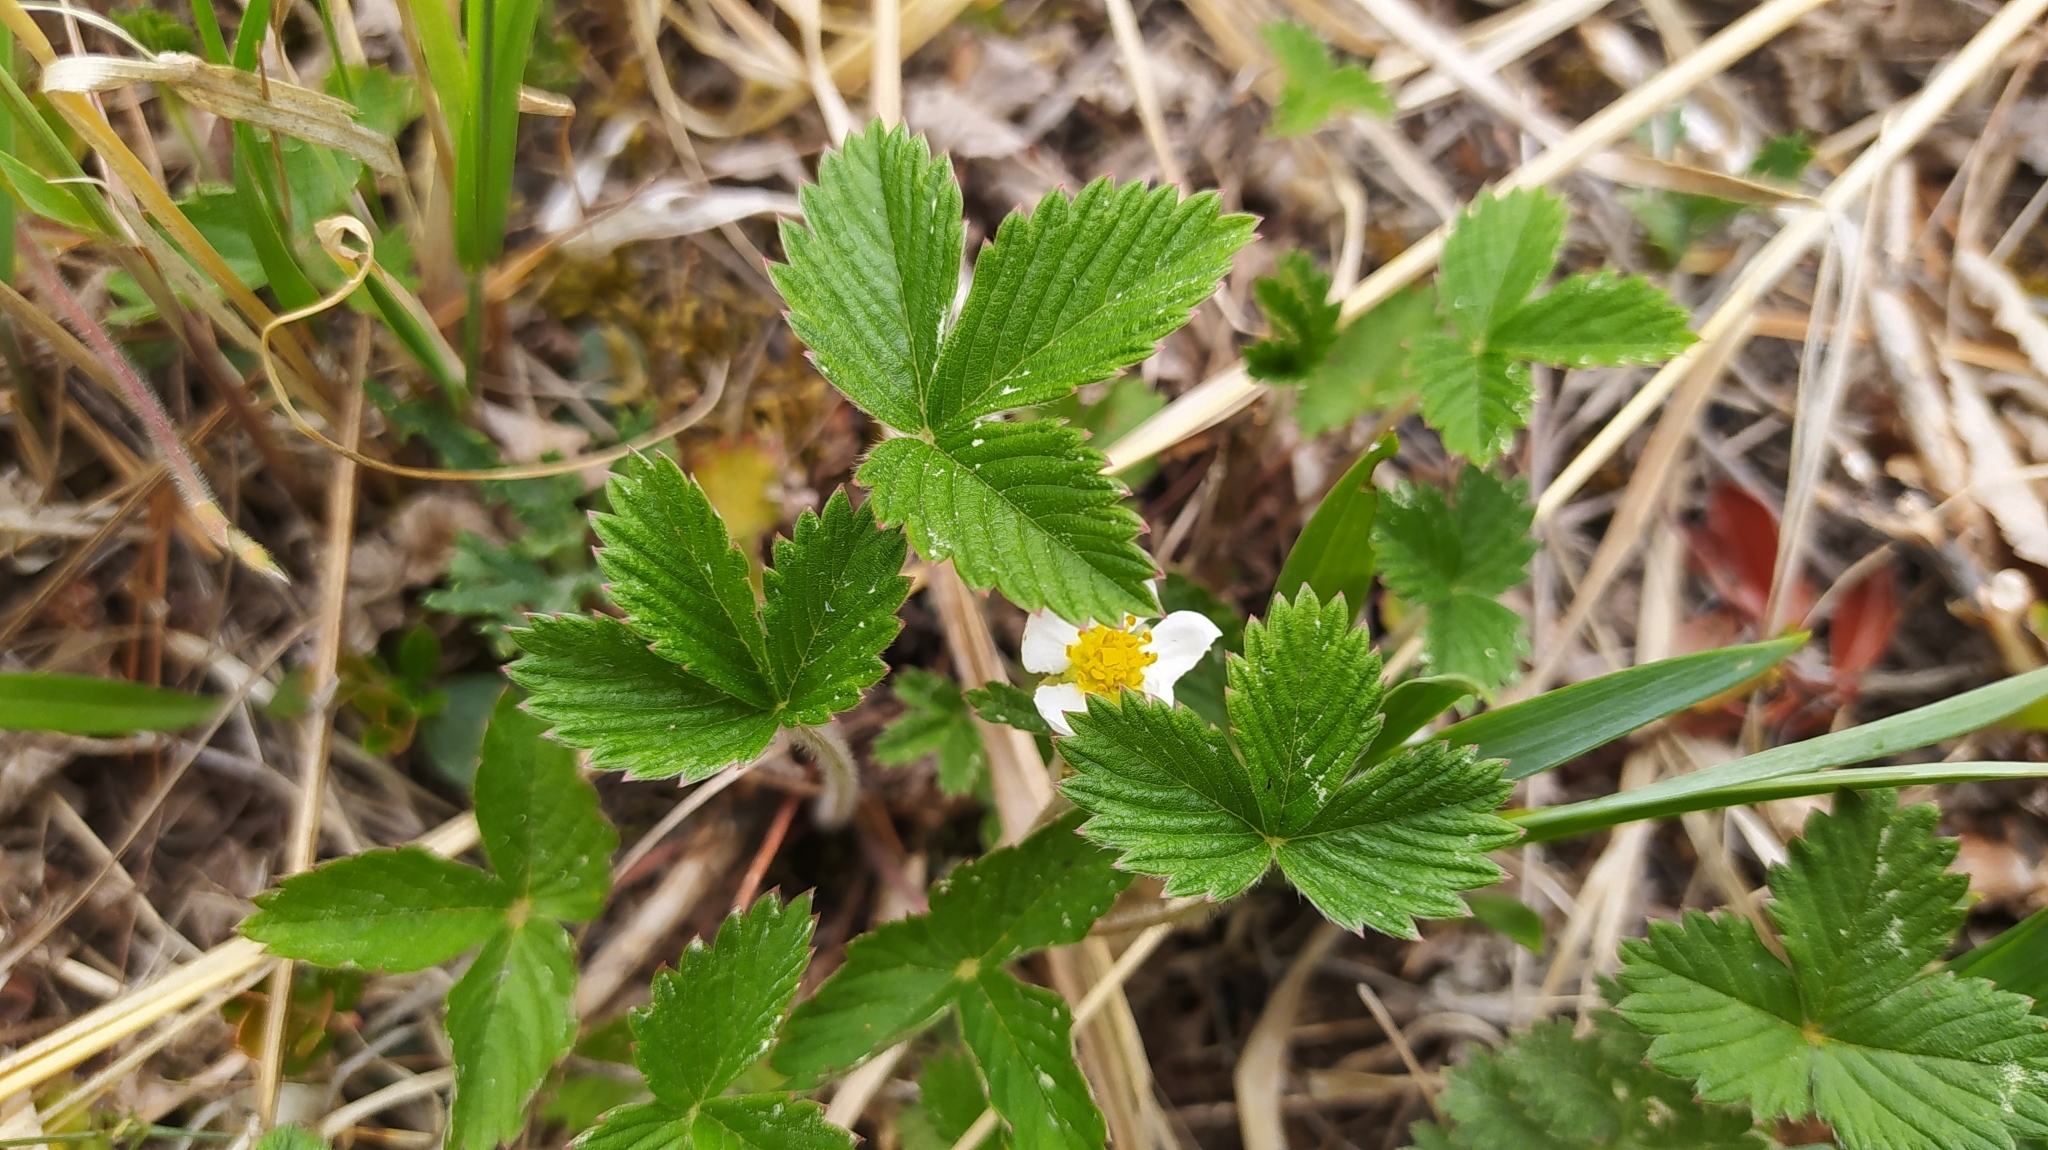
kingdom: Plantae
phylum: Tracheophyta
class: Magnoliopsida
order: Rosales
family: Rosaceae
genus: Fragaria
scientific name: Fragaria orientalis
